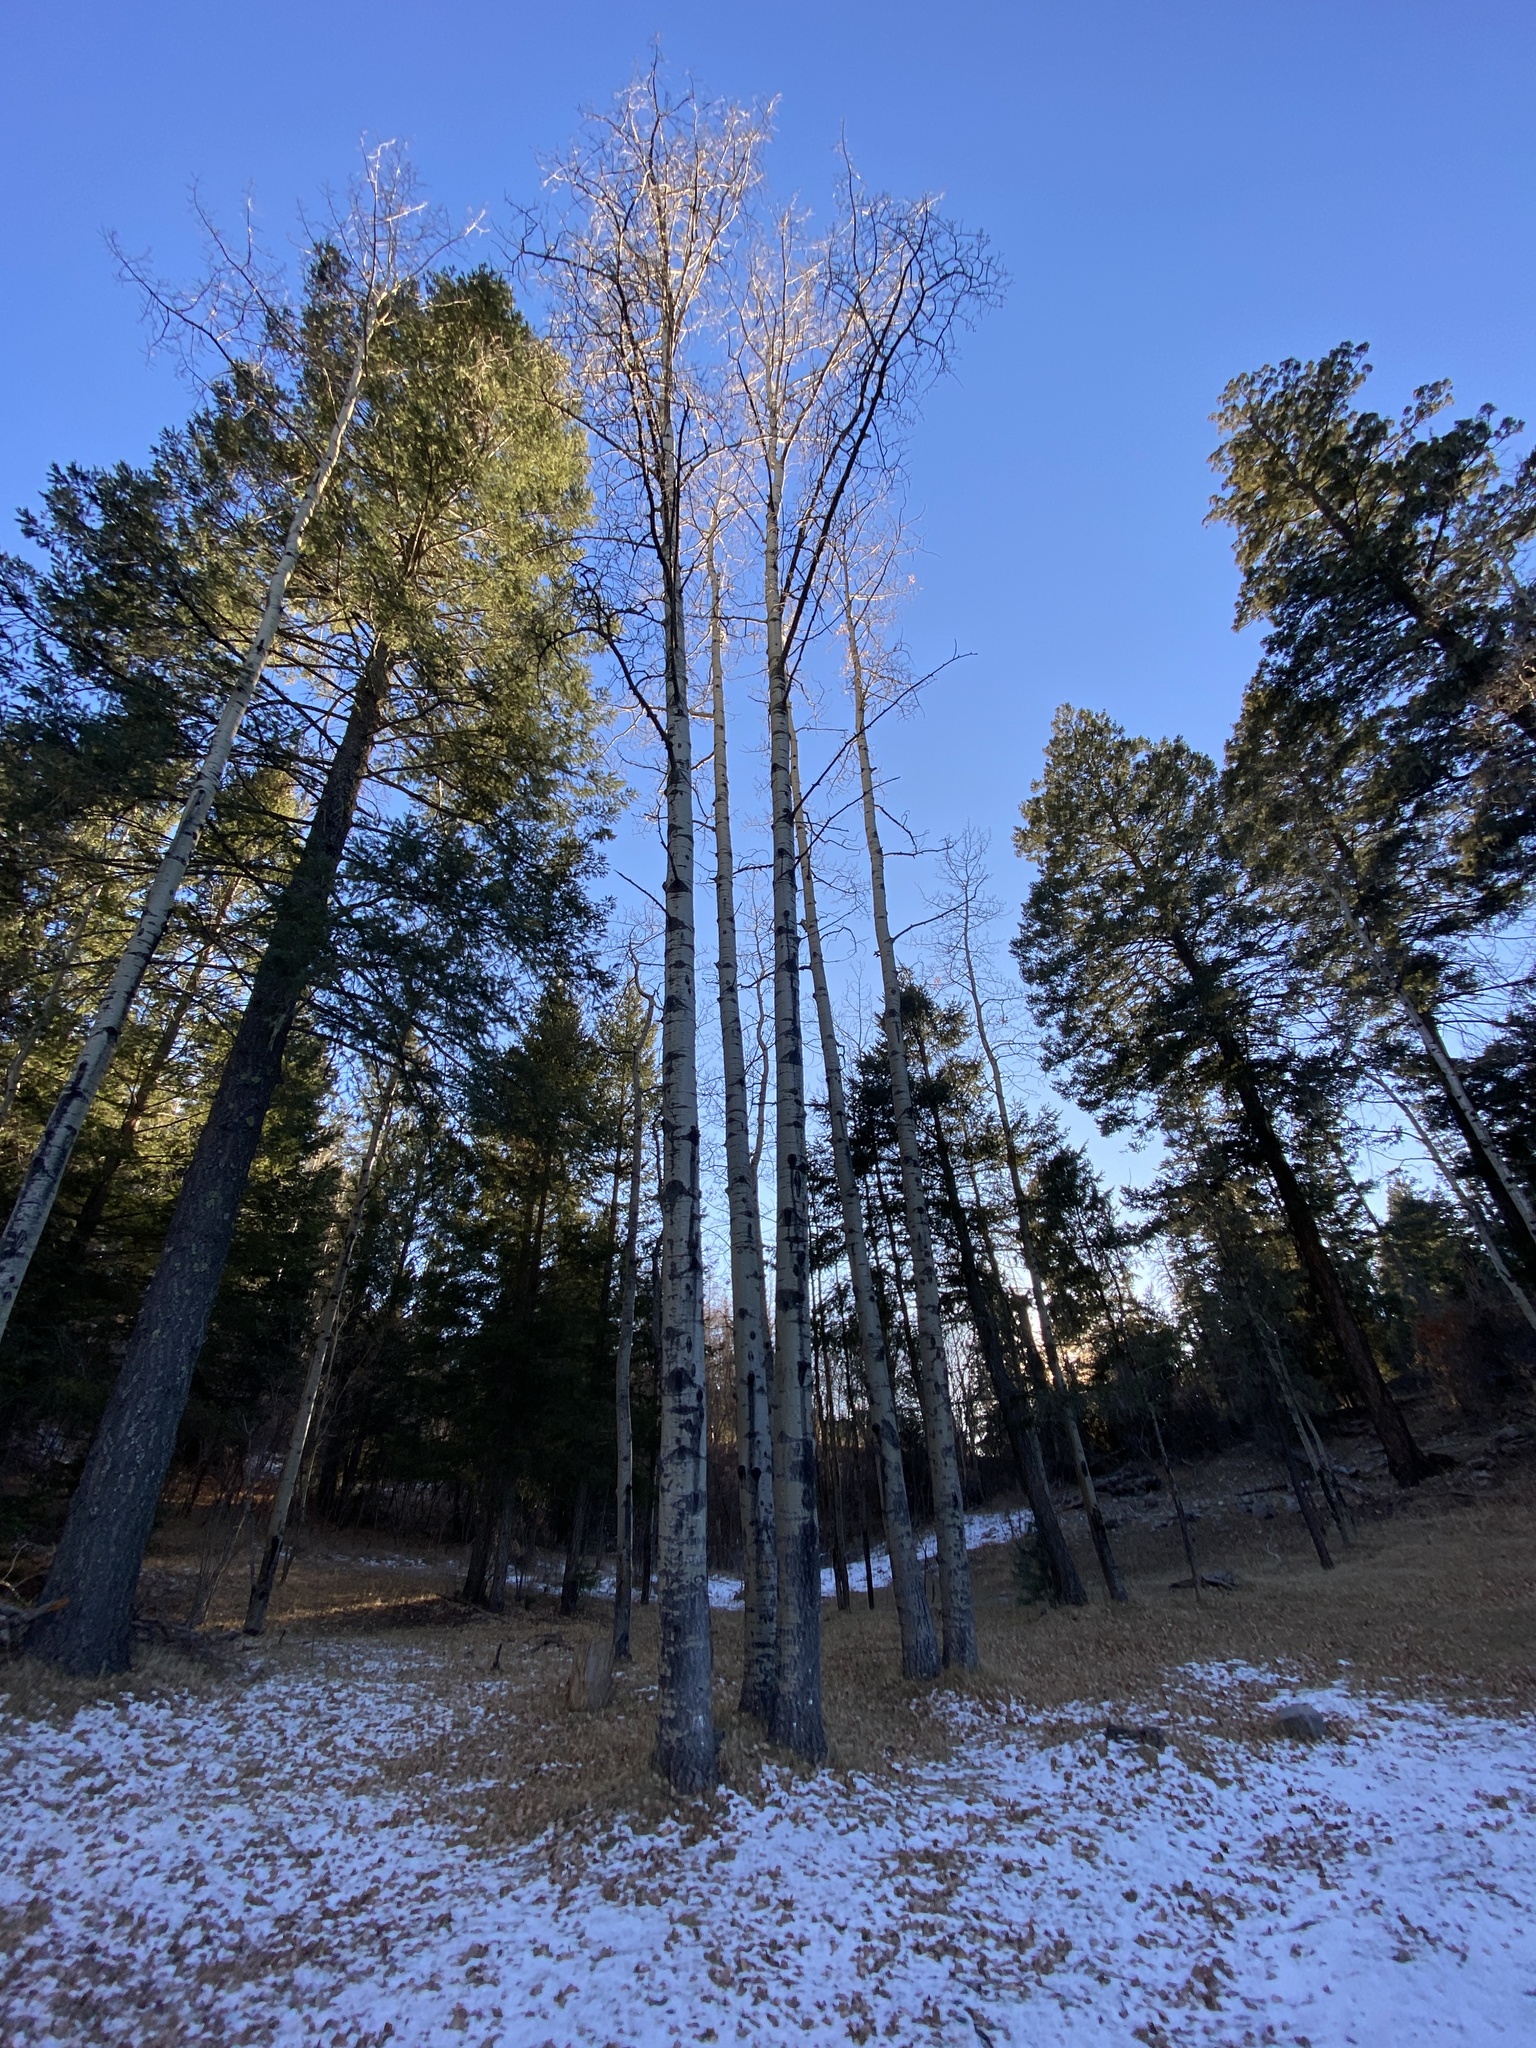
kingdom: Plantae
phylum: Tracheophyta
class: Magnoliopsida
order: Malpighiales
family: Salicaceae
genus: Populus
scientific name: Populus tremuloides
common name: Quaking aspen
